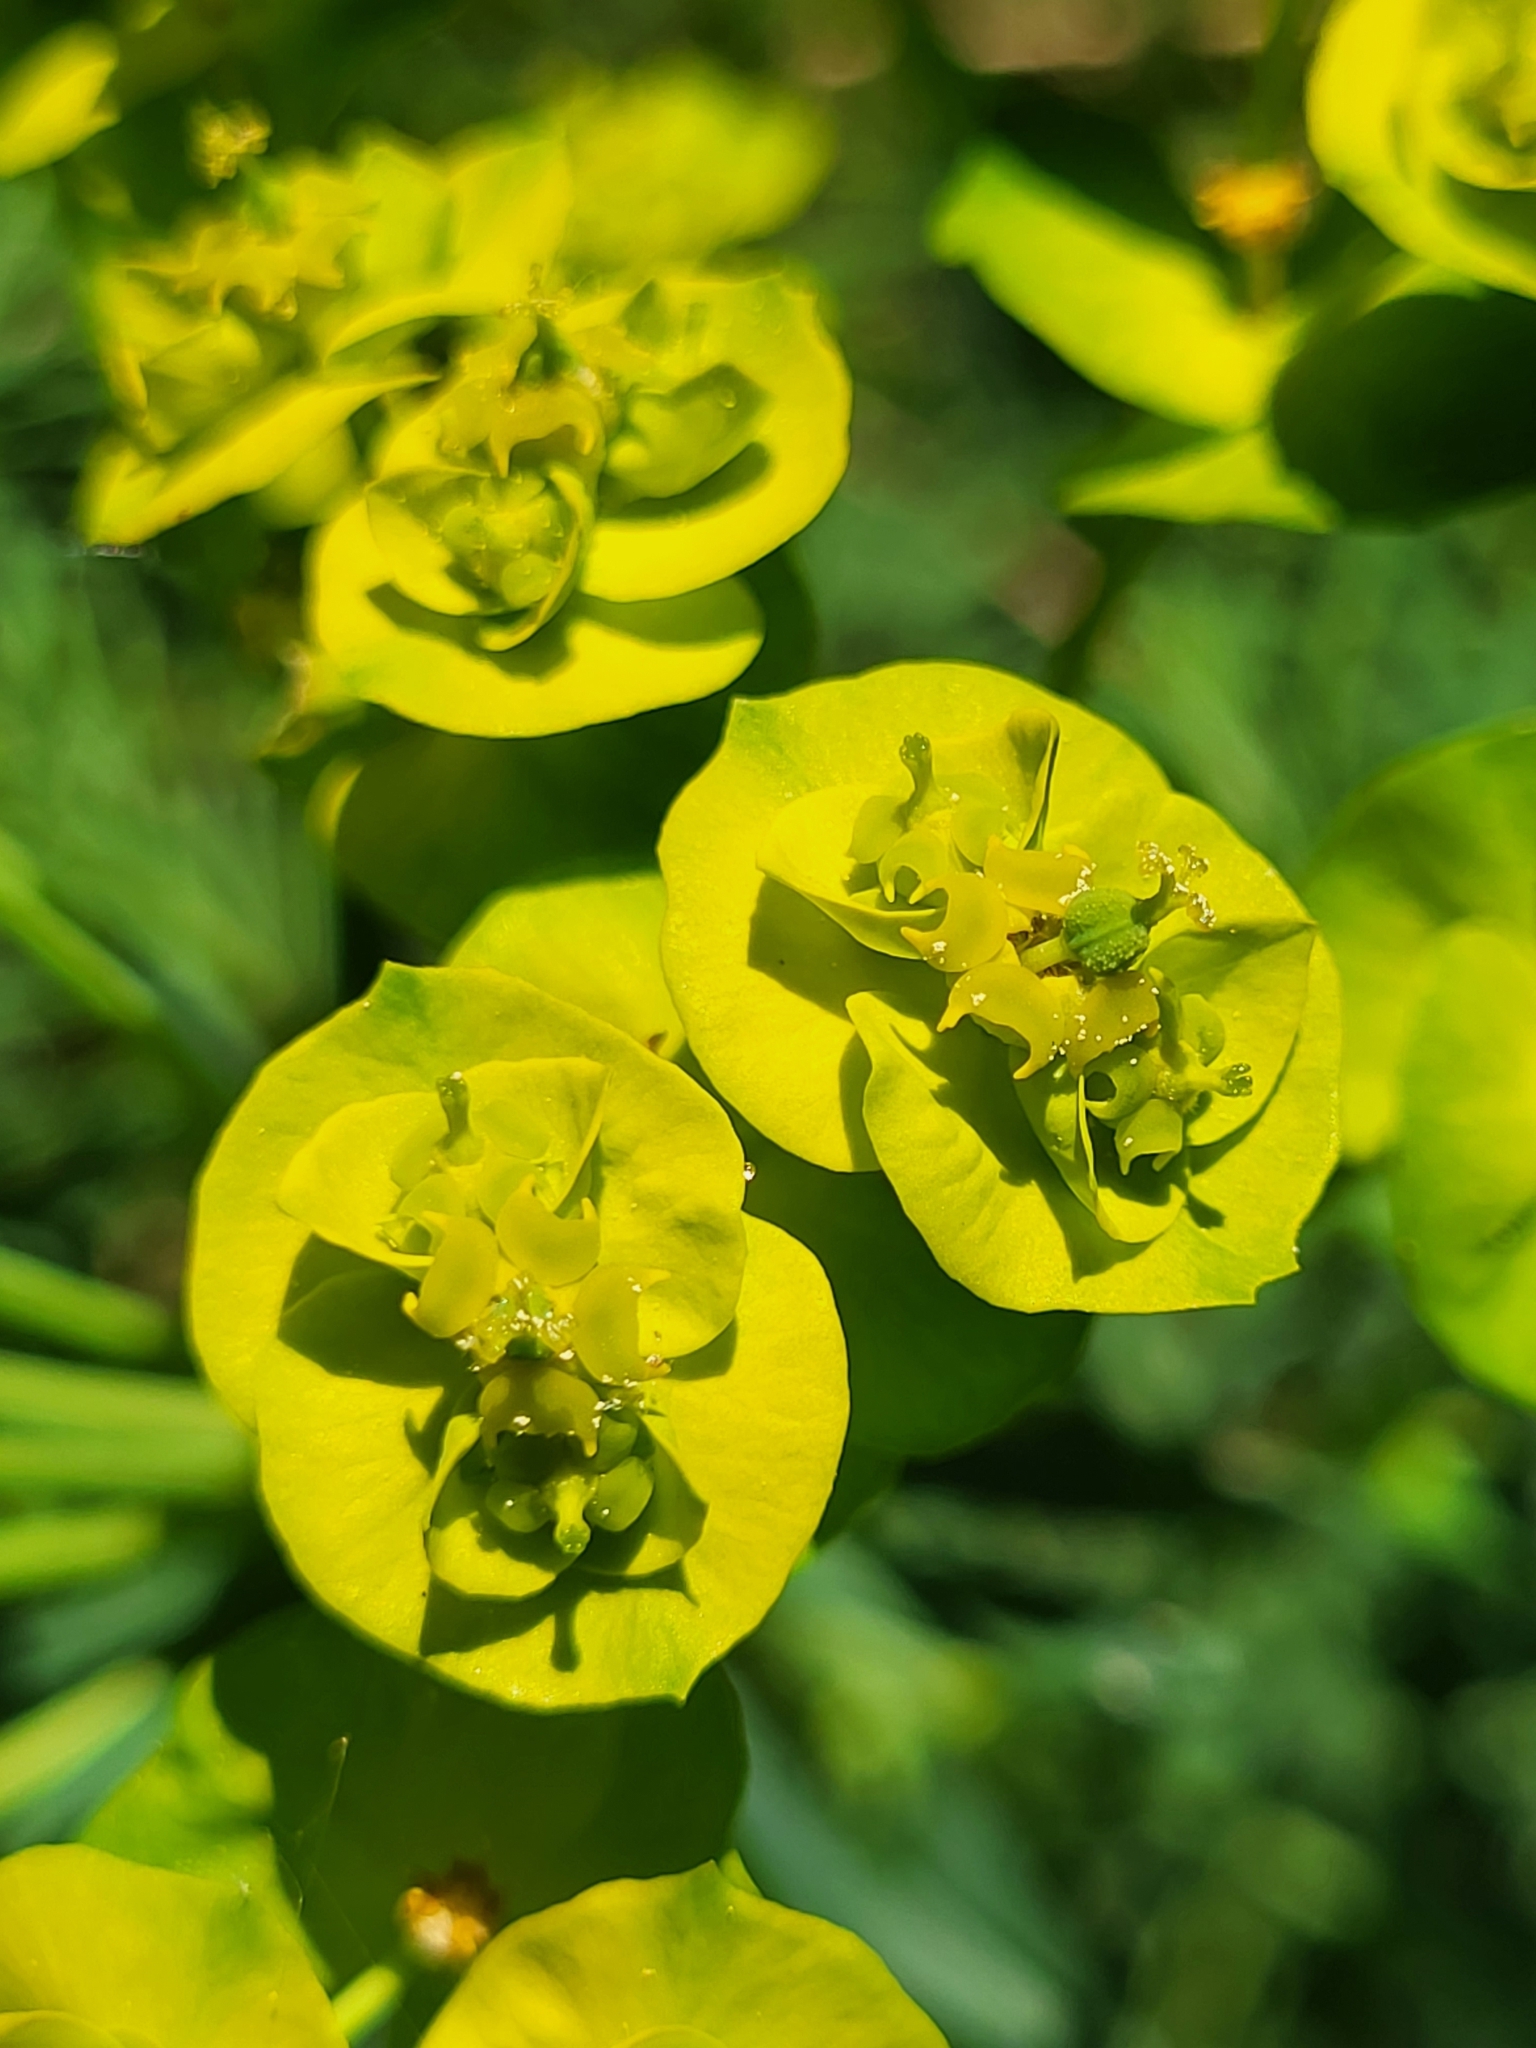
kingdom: Plantae
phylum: Tracheophyta
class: Magnoliopsida
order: Malpighiales
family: Euphorbiaceae
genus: Euphorbia
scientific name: Euphorbia cyparissias
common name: Cypress spurge
